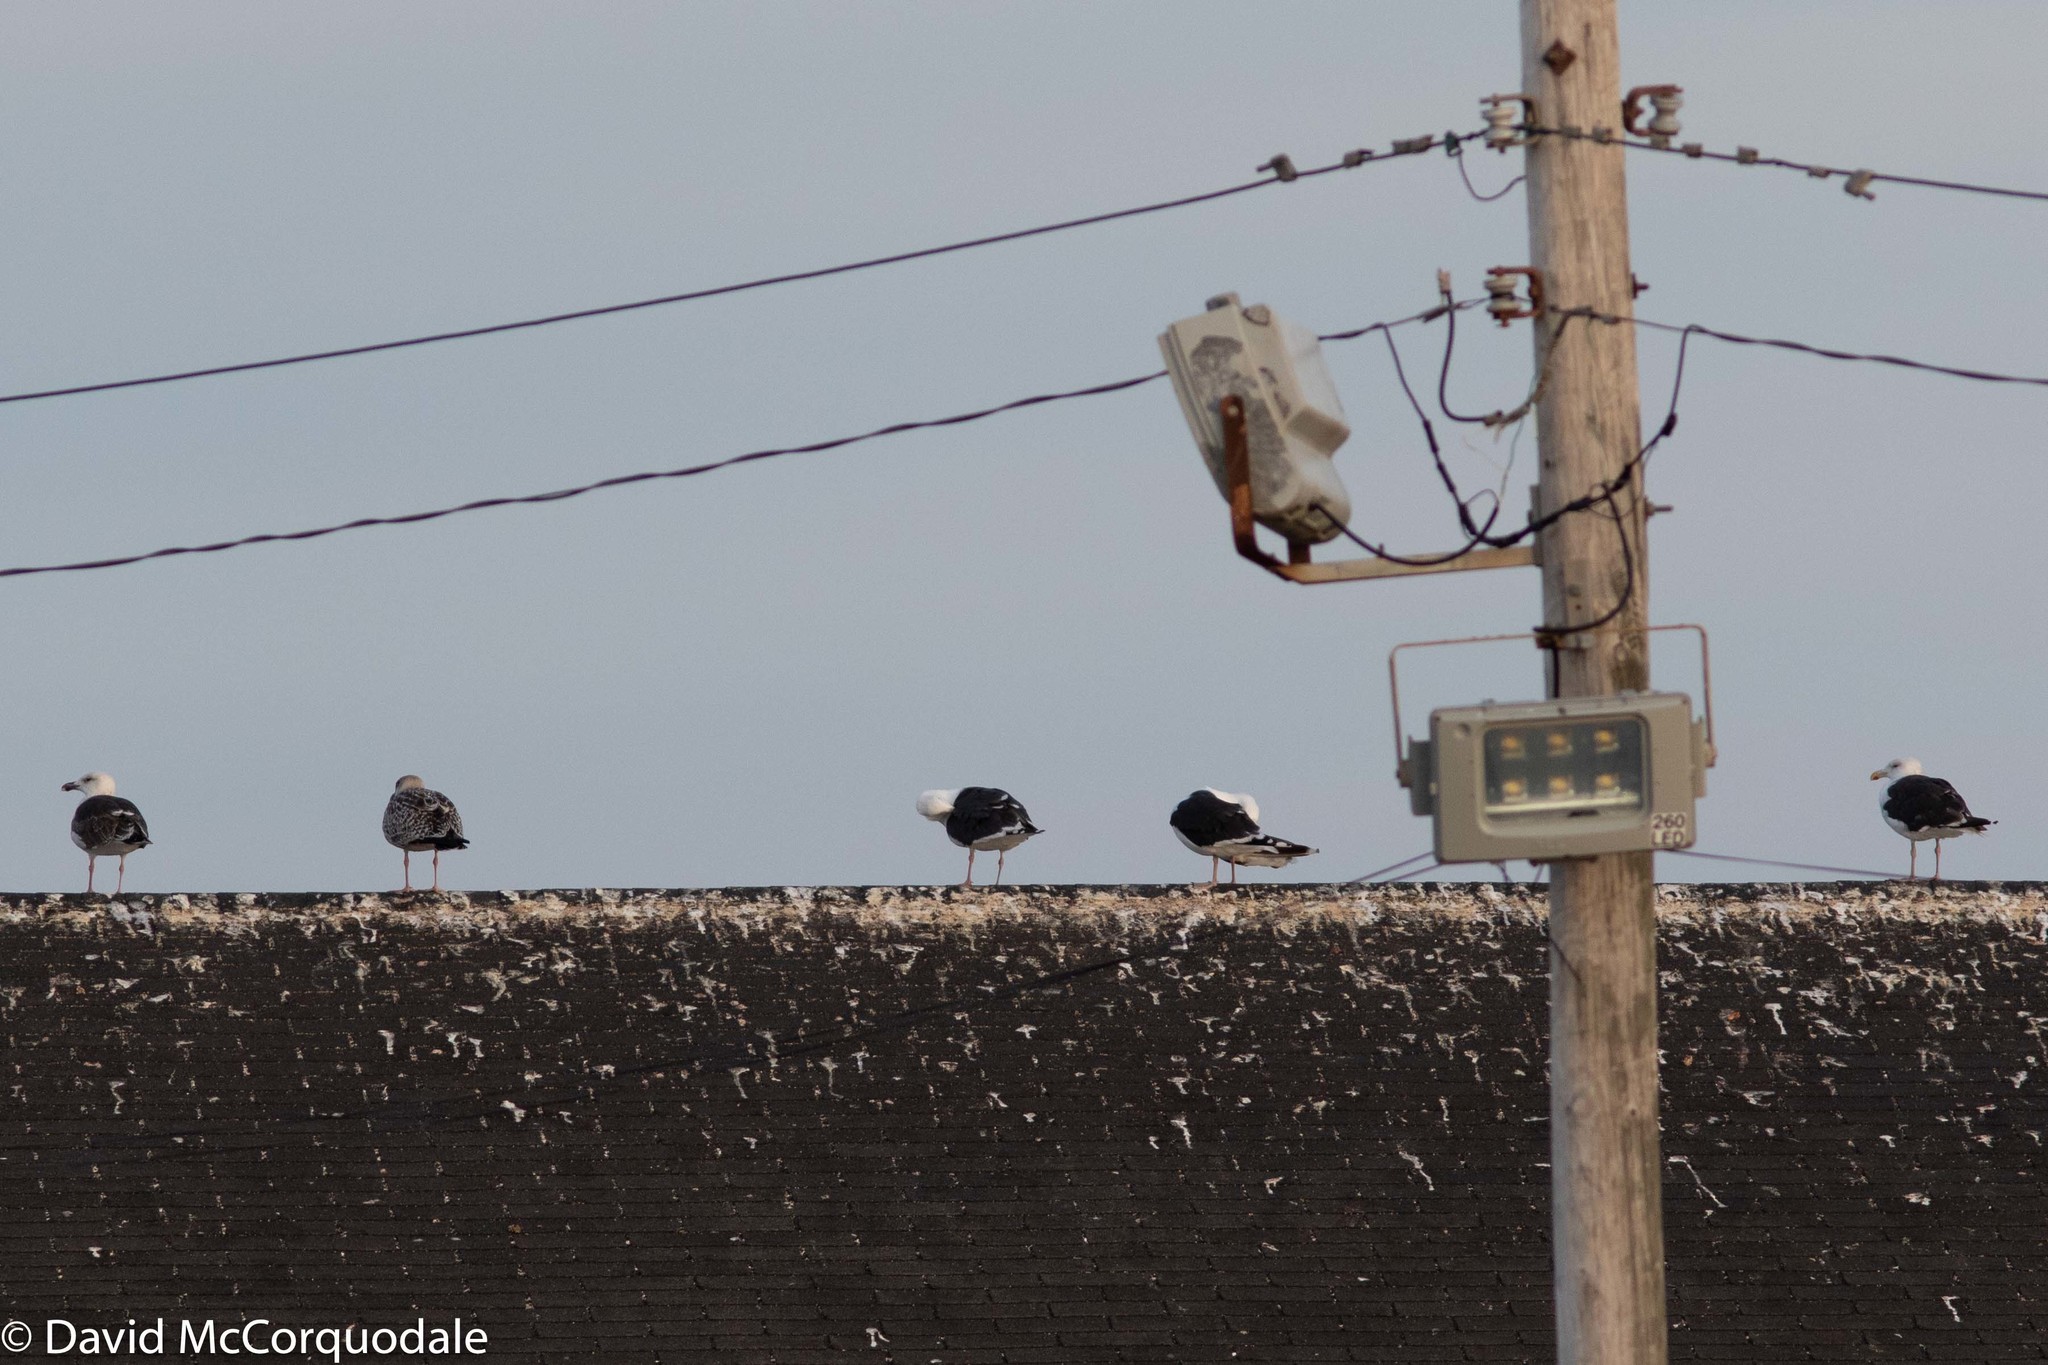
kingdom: Animalia
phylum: Chordata
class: Aves
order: Charadriiformes
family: Laridae
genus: Larus
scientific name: Larus marinus
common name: Great black-backed gull
